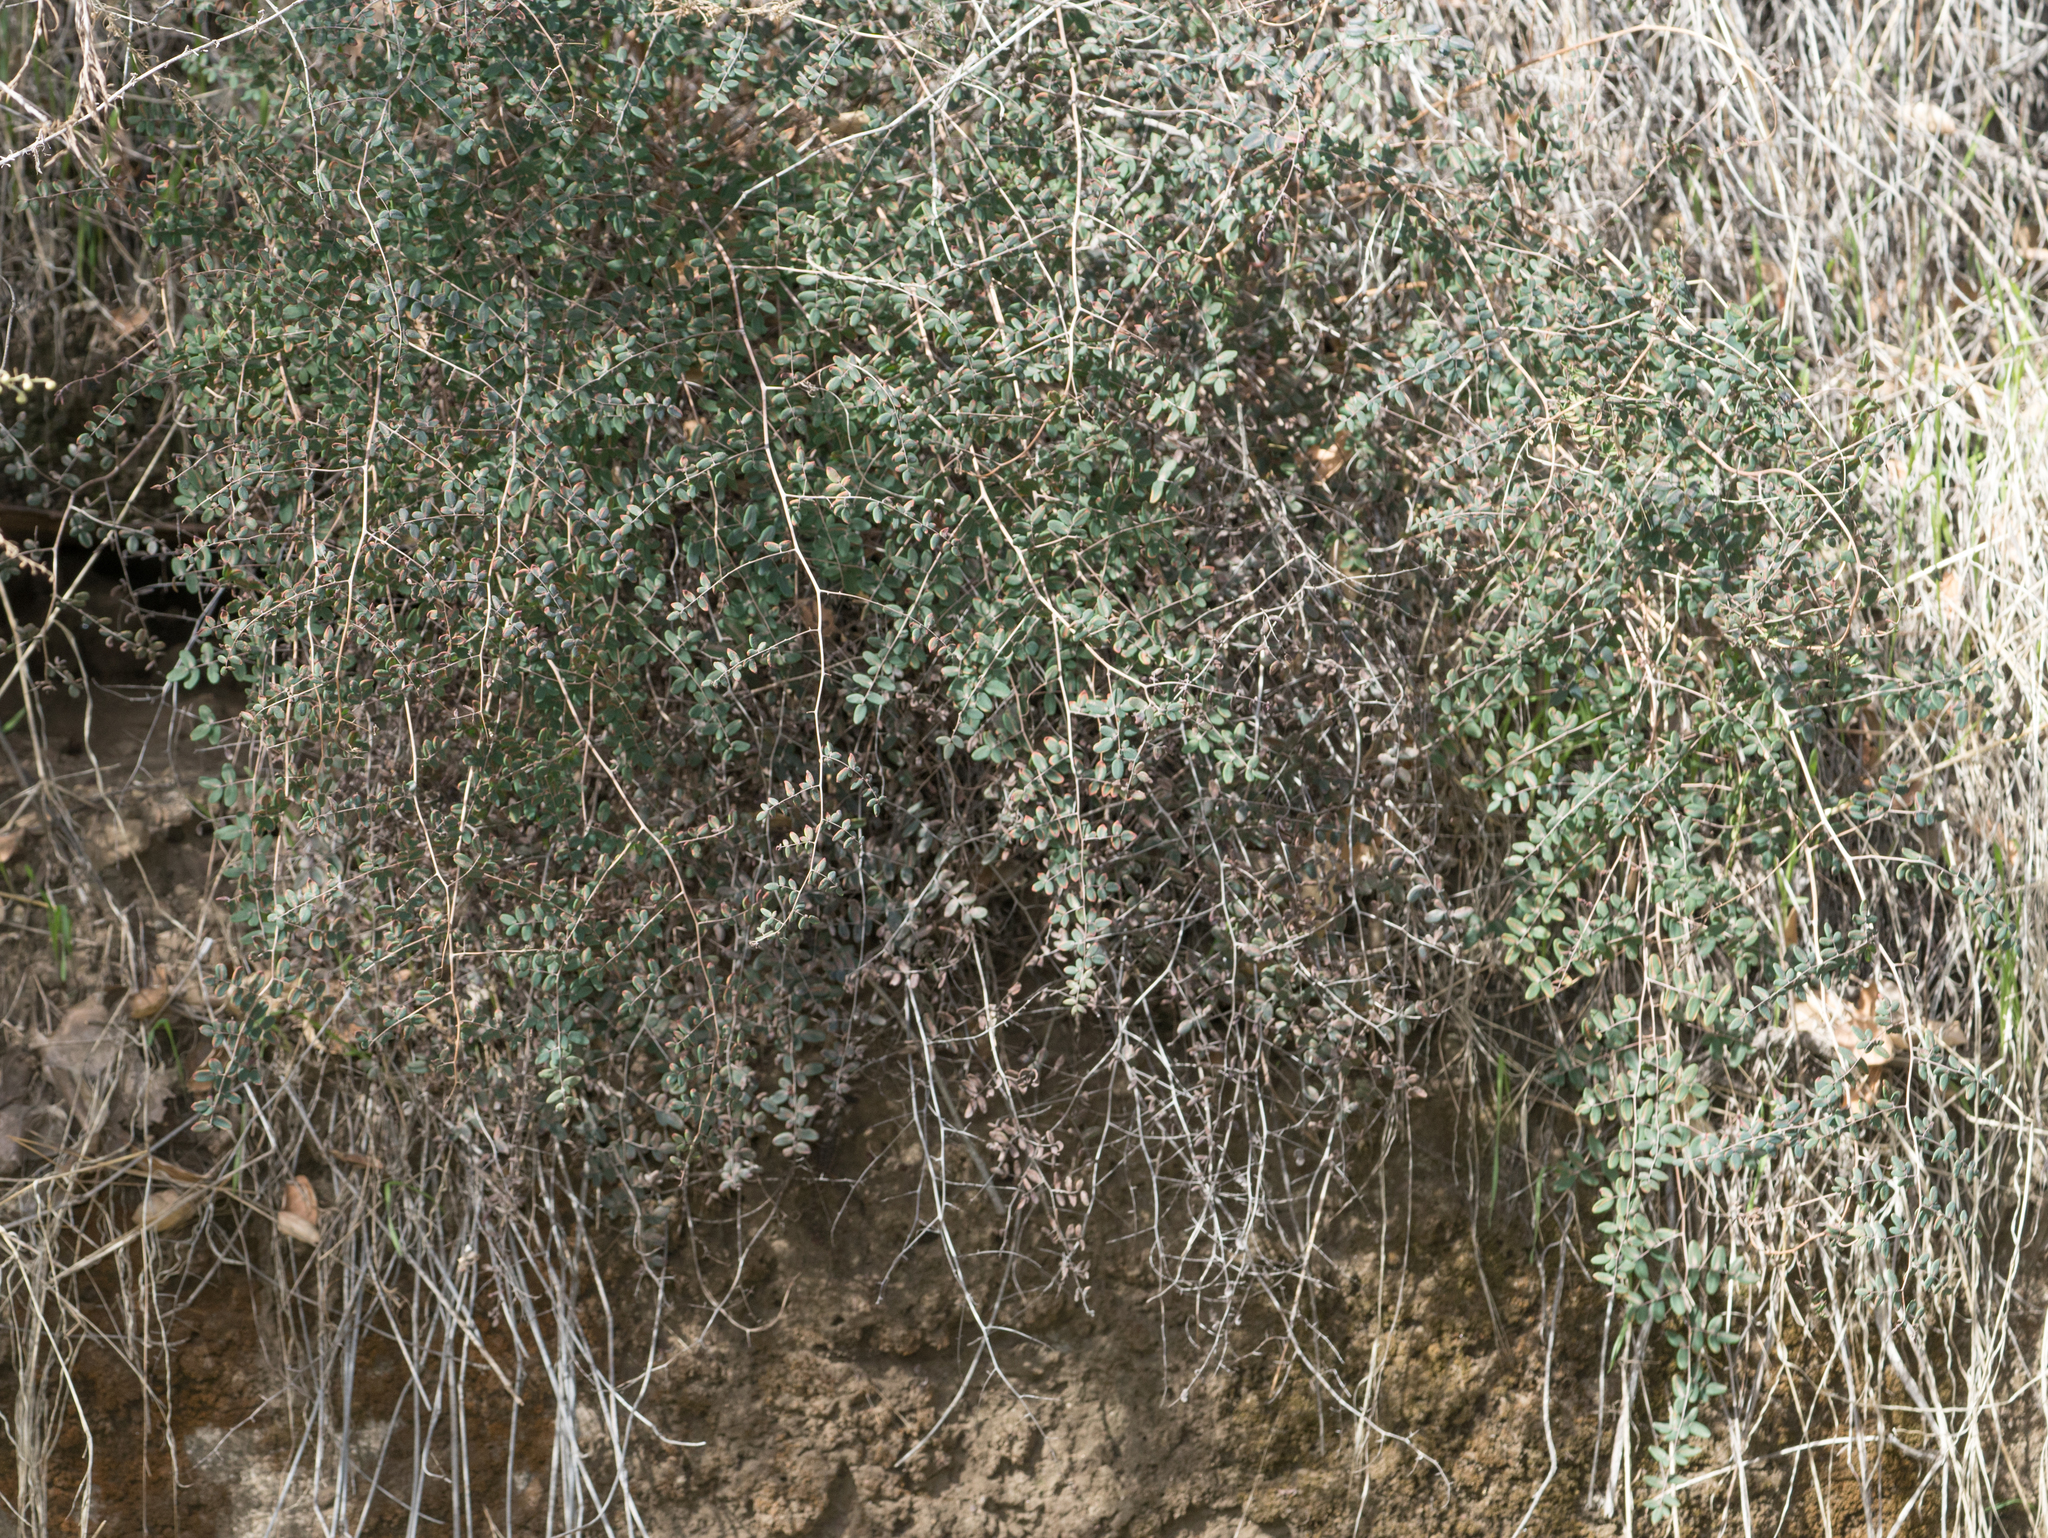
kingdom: Plantae
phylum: Tracheophyta
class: Polypodiopsida
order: Polypodiales
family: Pteridaceae
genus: Pellaea
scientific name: Pellaea andromedifolia
